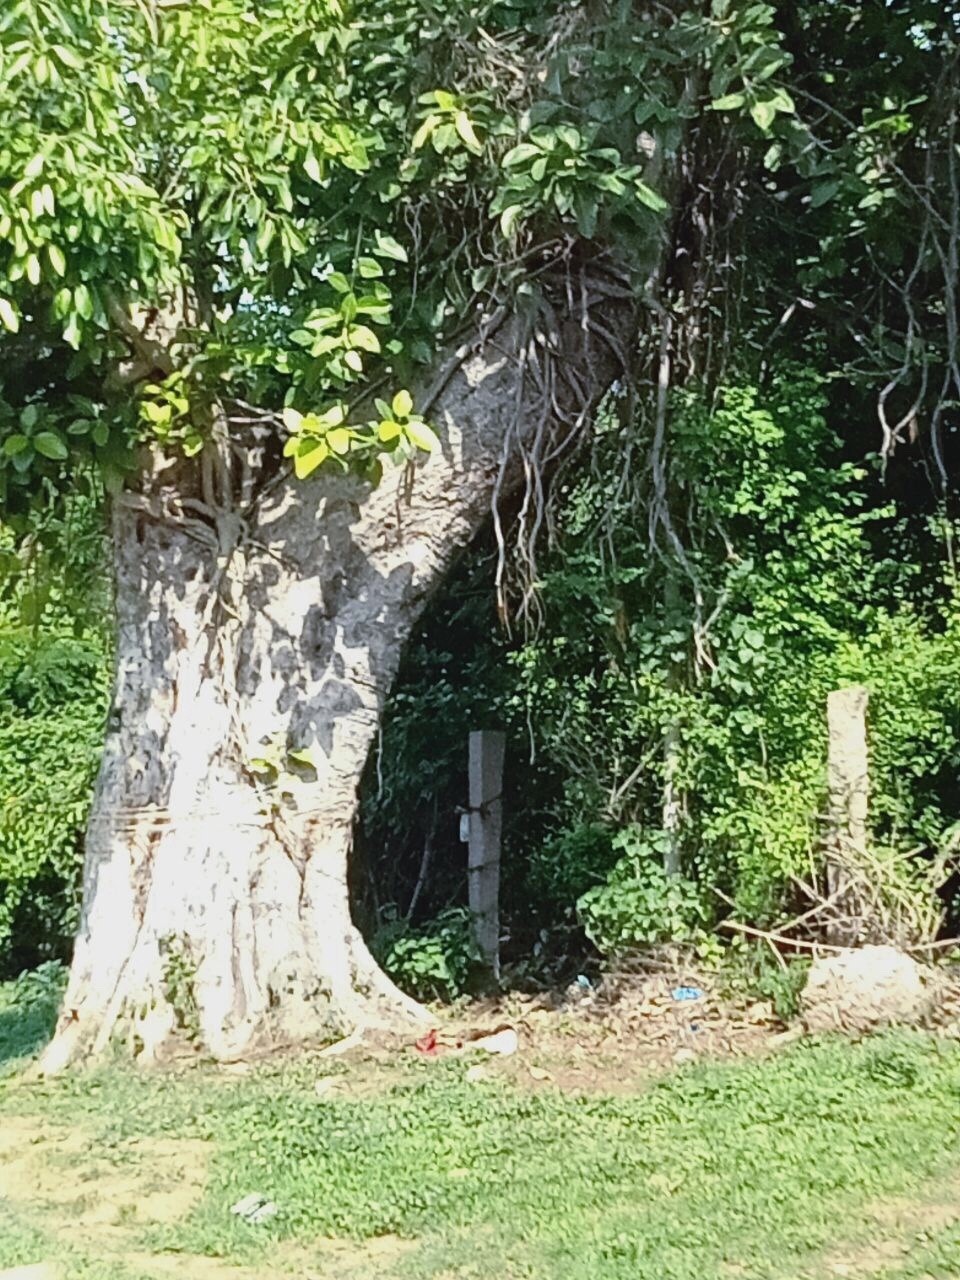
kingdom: Plantae
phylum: Tracheophyta
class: Magnoliopsida
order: Rosales
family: Moraceae
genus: Ficus
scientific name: Ficus benghalensis
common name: Indian banyan
